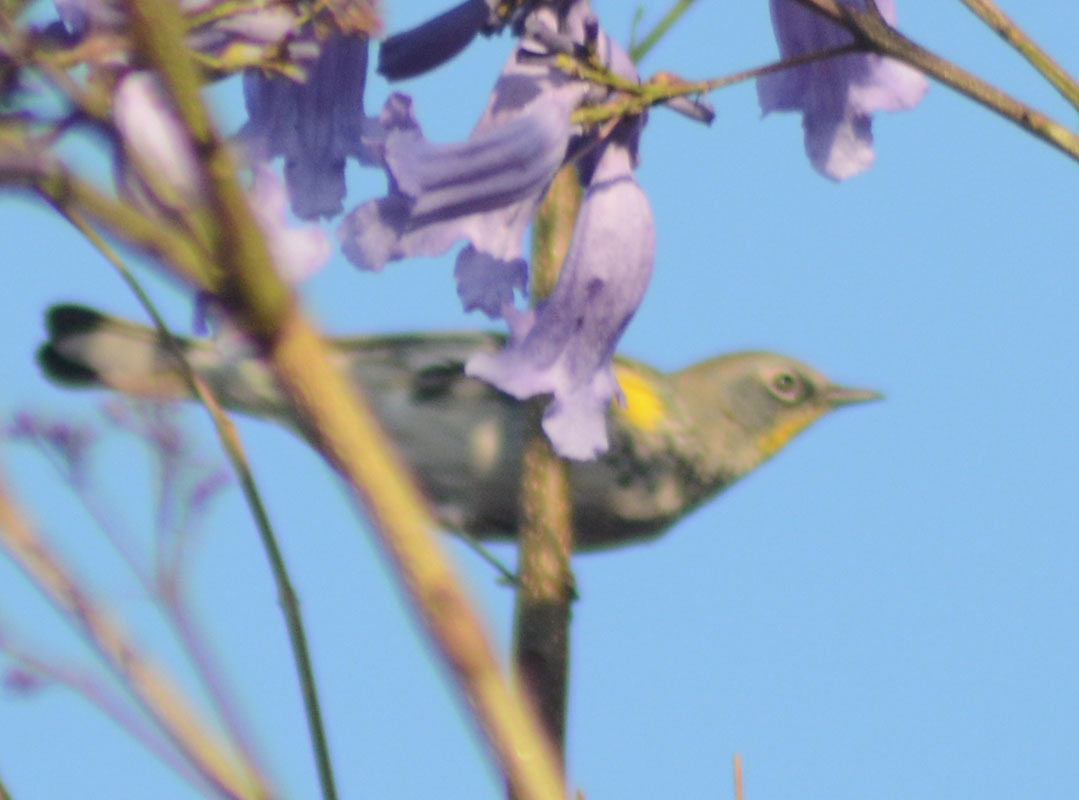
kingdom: Animalia
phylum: Chordata
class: Aves
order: Passeriformes
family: Parulidae
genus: Setophaga
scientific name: Setophaga auduboni
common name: Audubon's warbler
